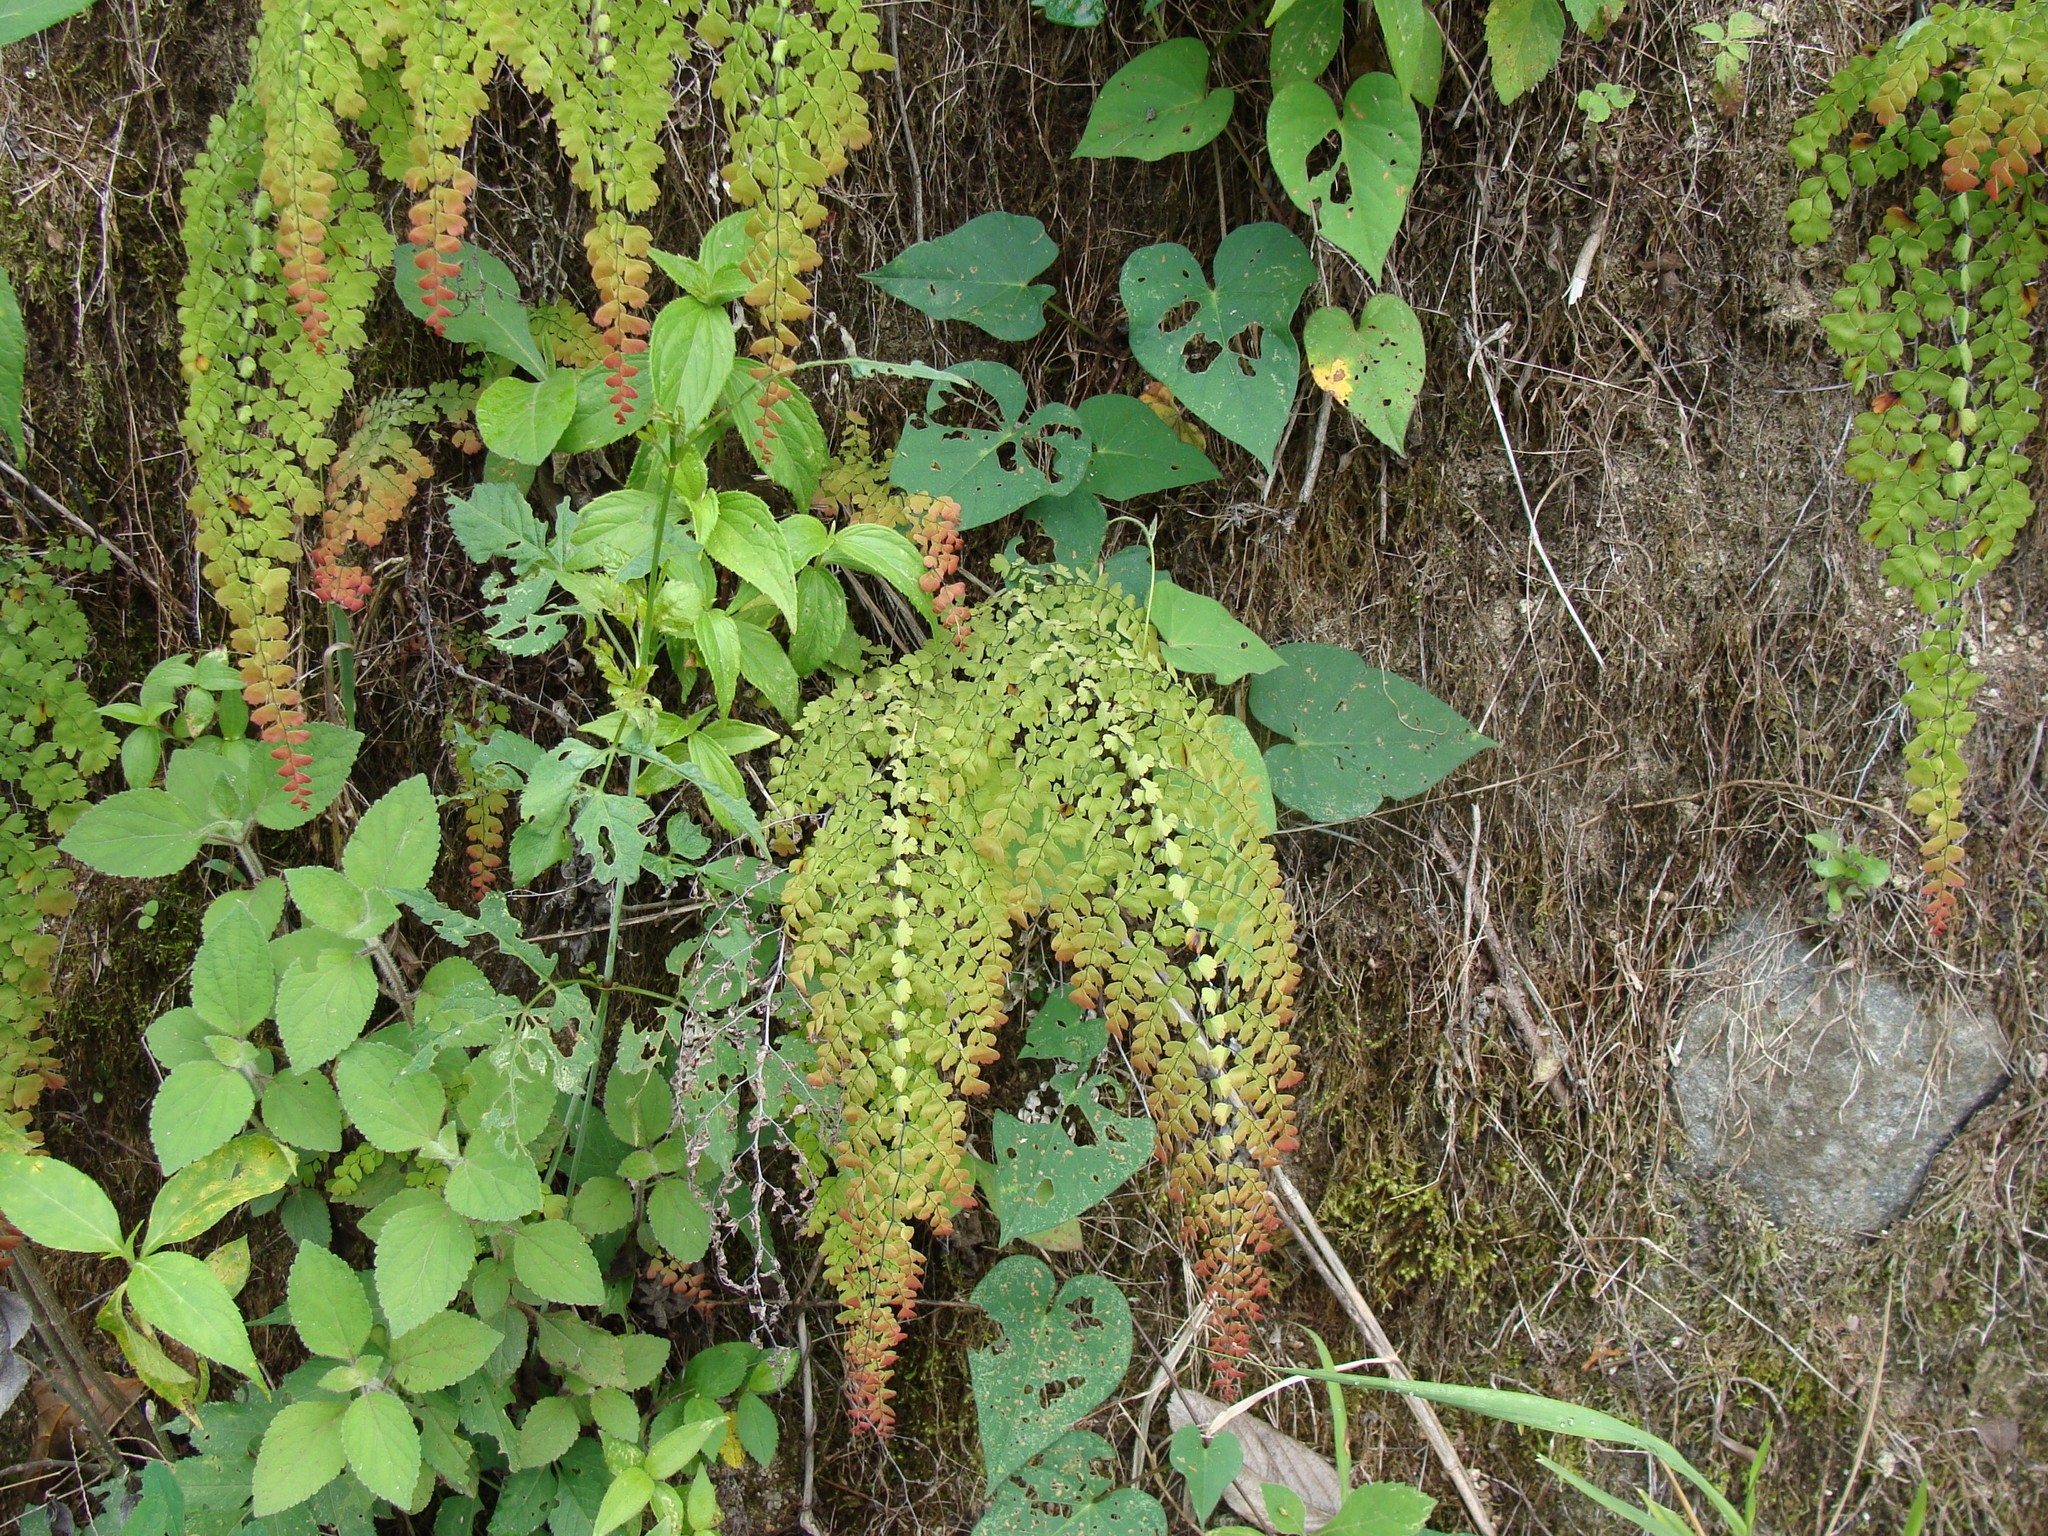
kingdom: Plantae
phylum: Tracheophyta
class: Polypodiopsida
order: Polypodiales
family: Pteridaceae
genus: Adiantum
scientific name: Adiantum concinnum
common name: Brittle maidenhair fern
